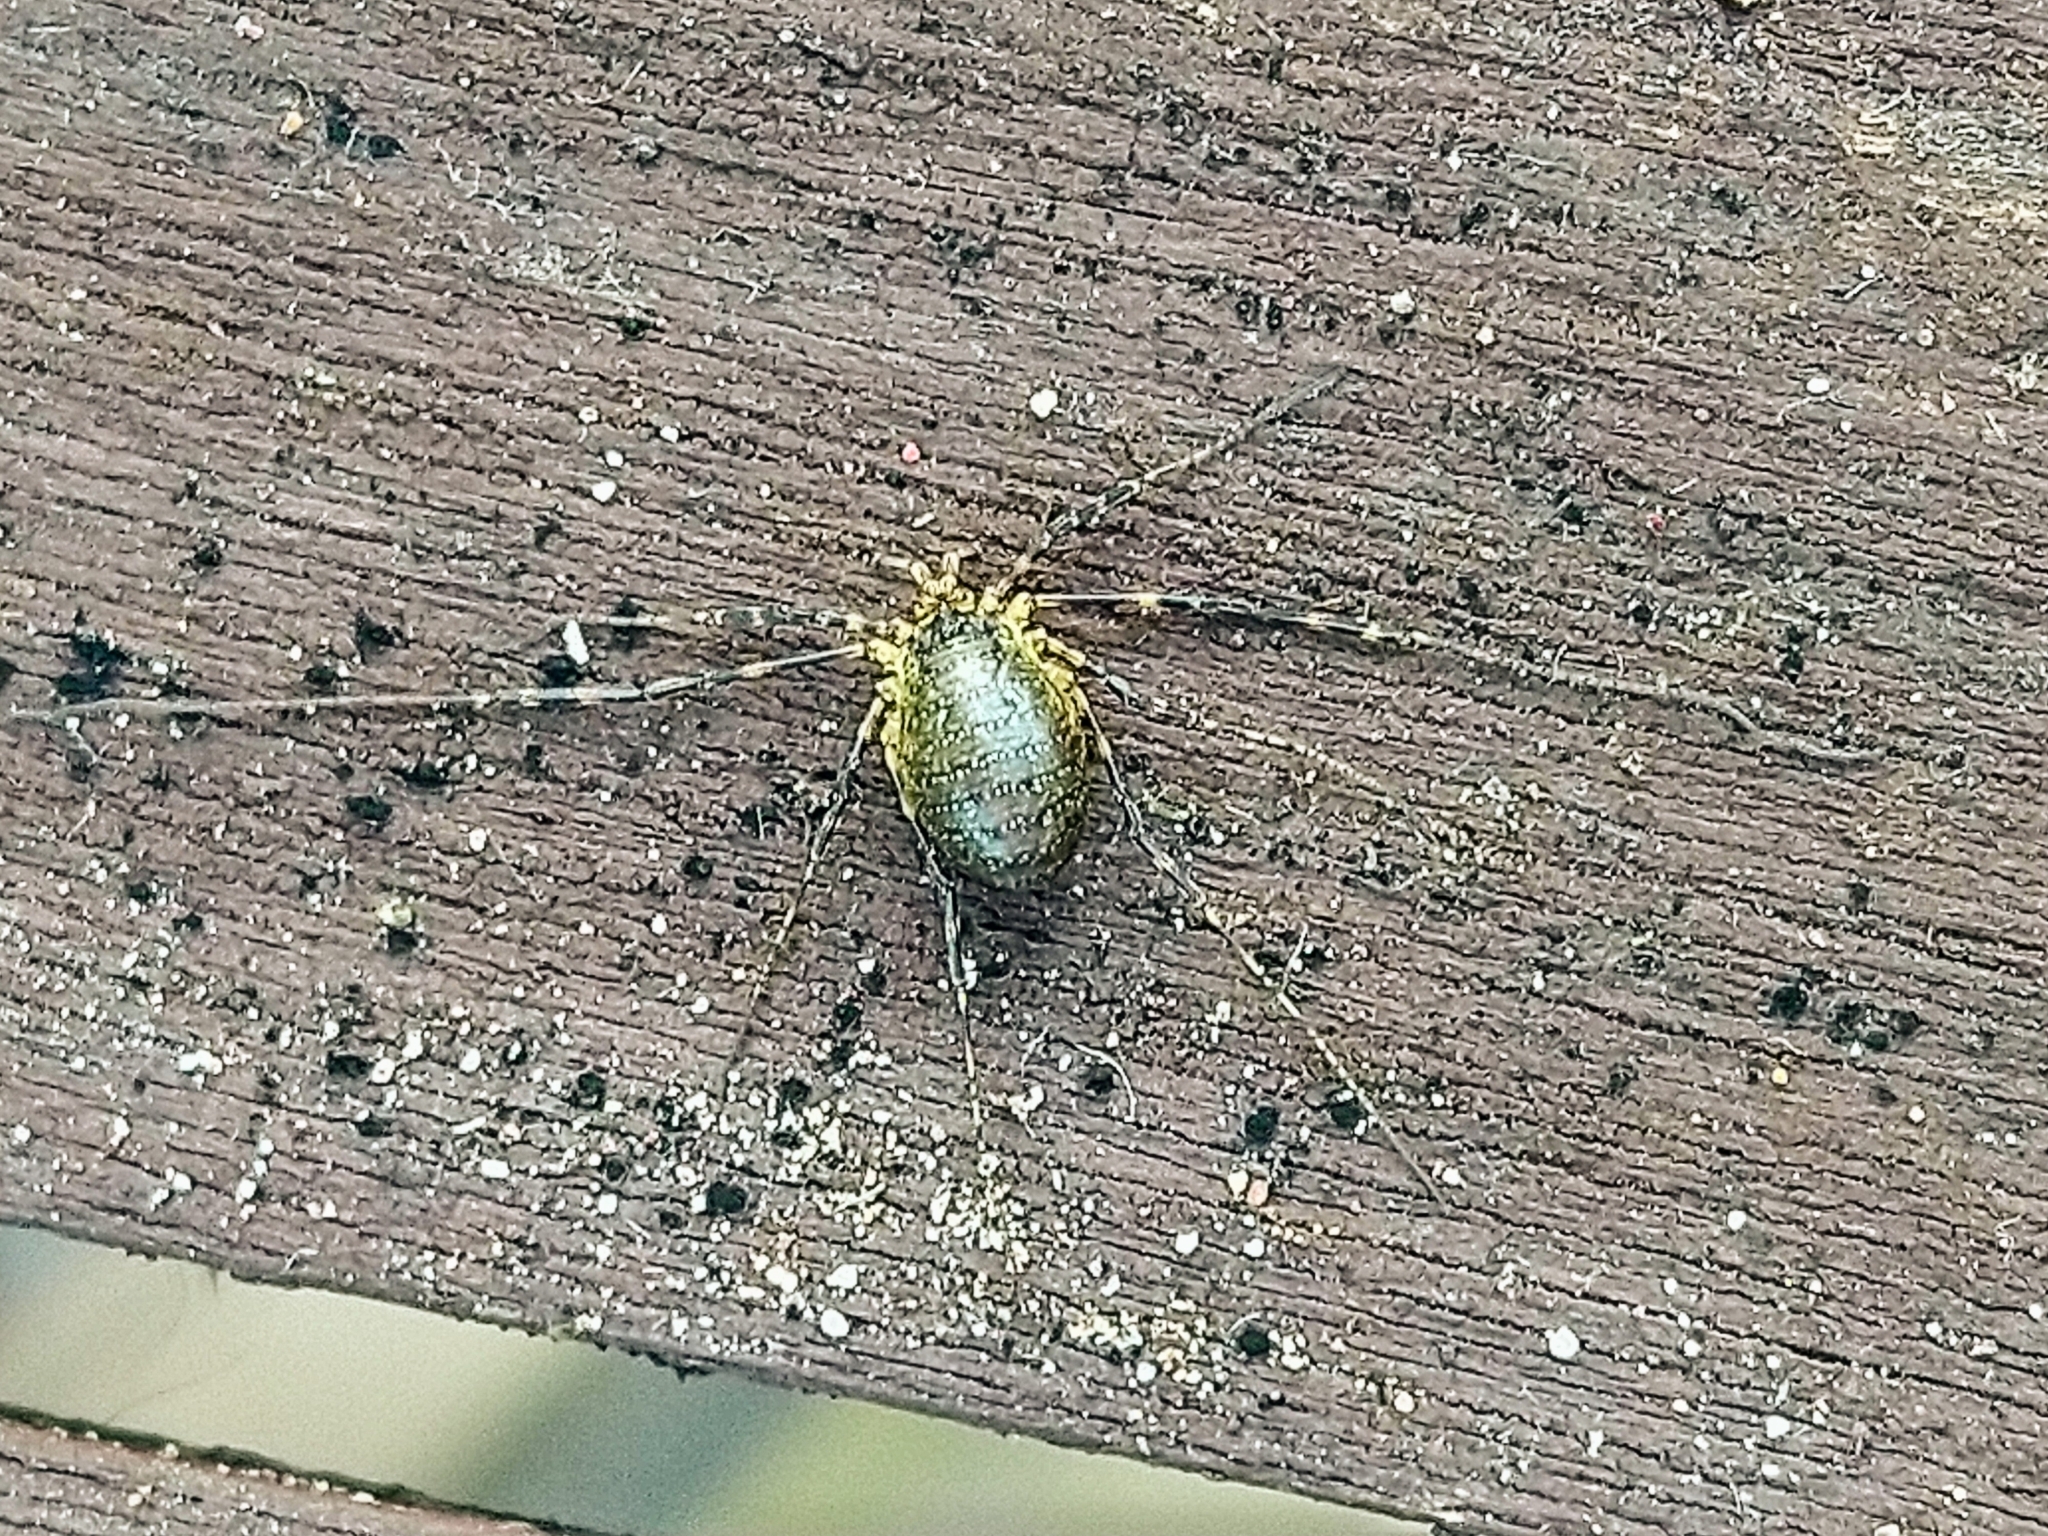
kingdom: Animalia
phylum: Arthropoda
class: Arachnida
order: Opiliones
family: Phalangiidae
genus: Oligolophus
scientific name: Oligolophus hansenii
